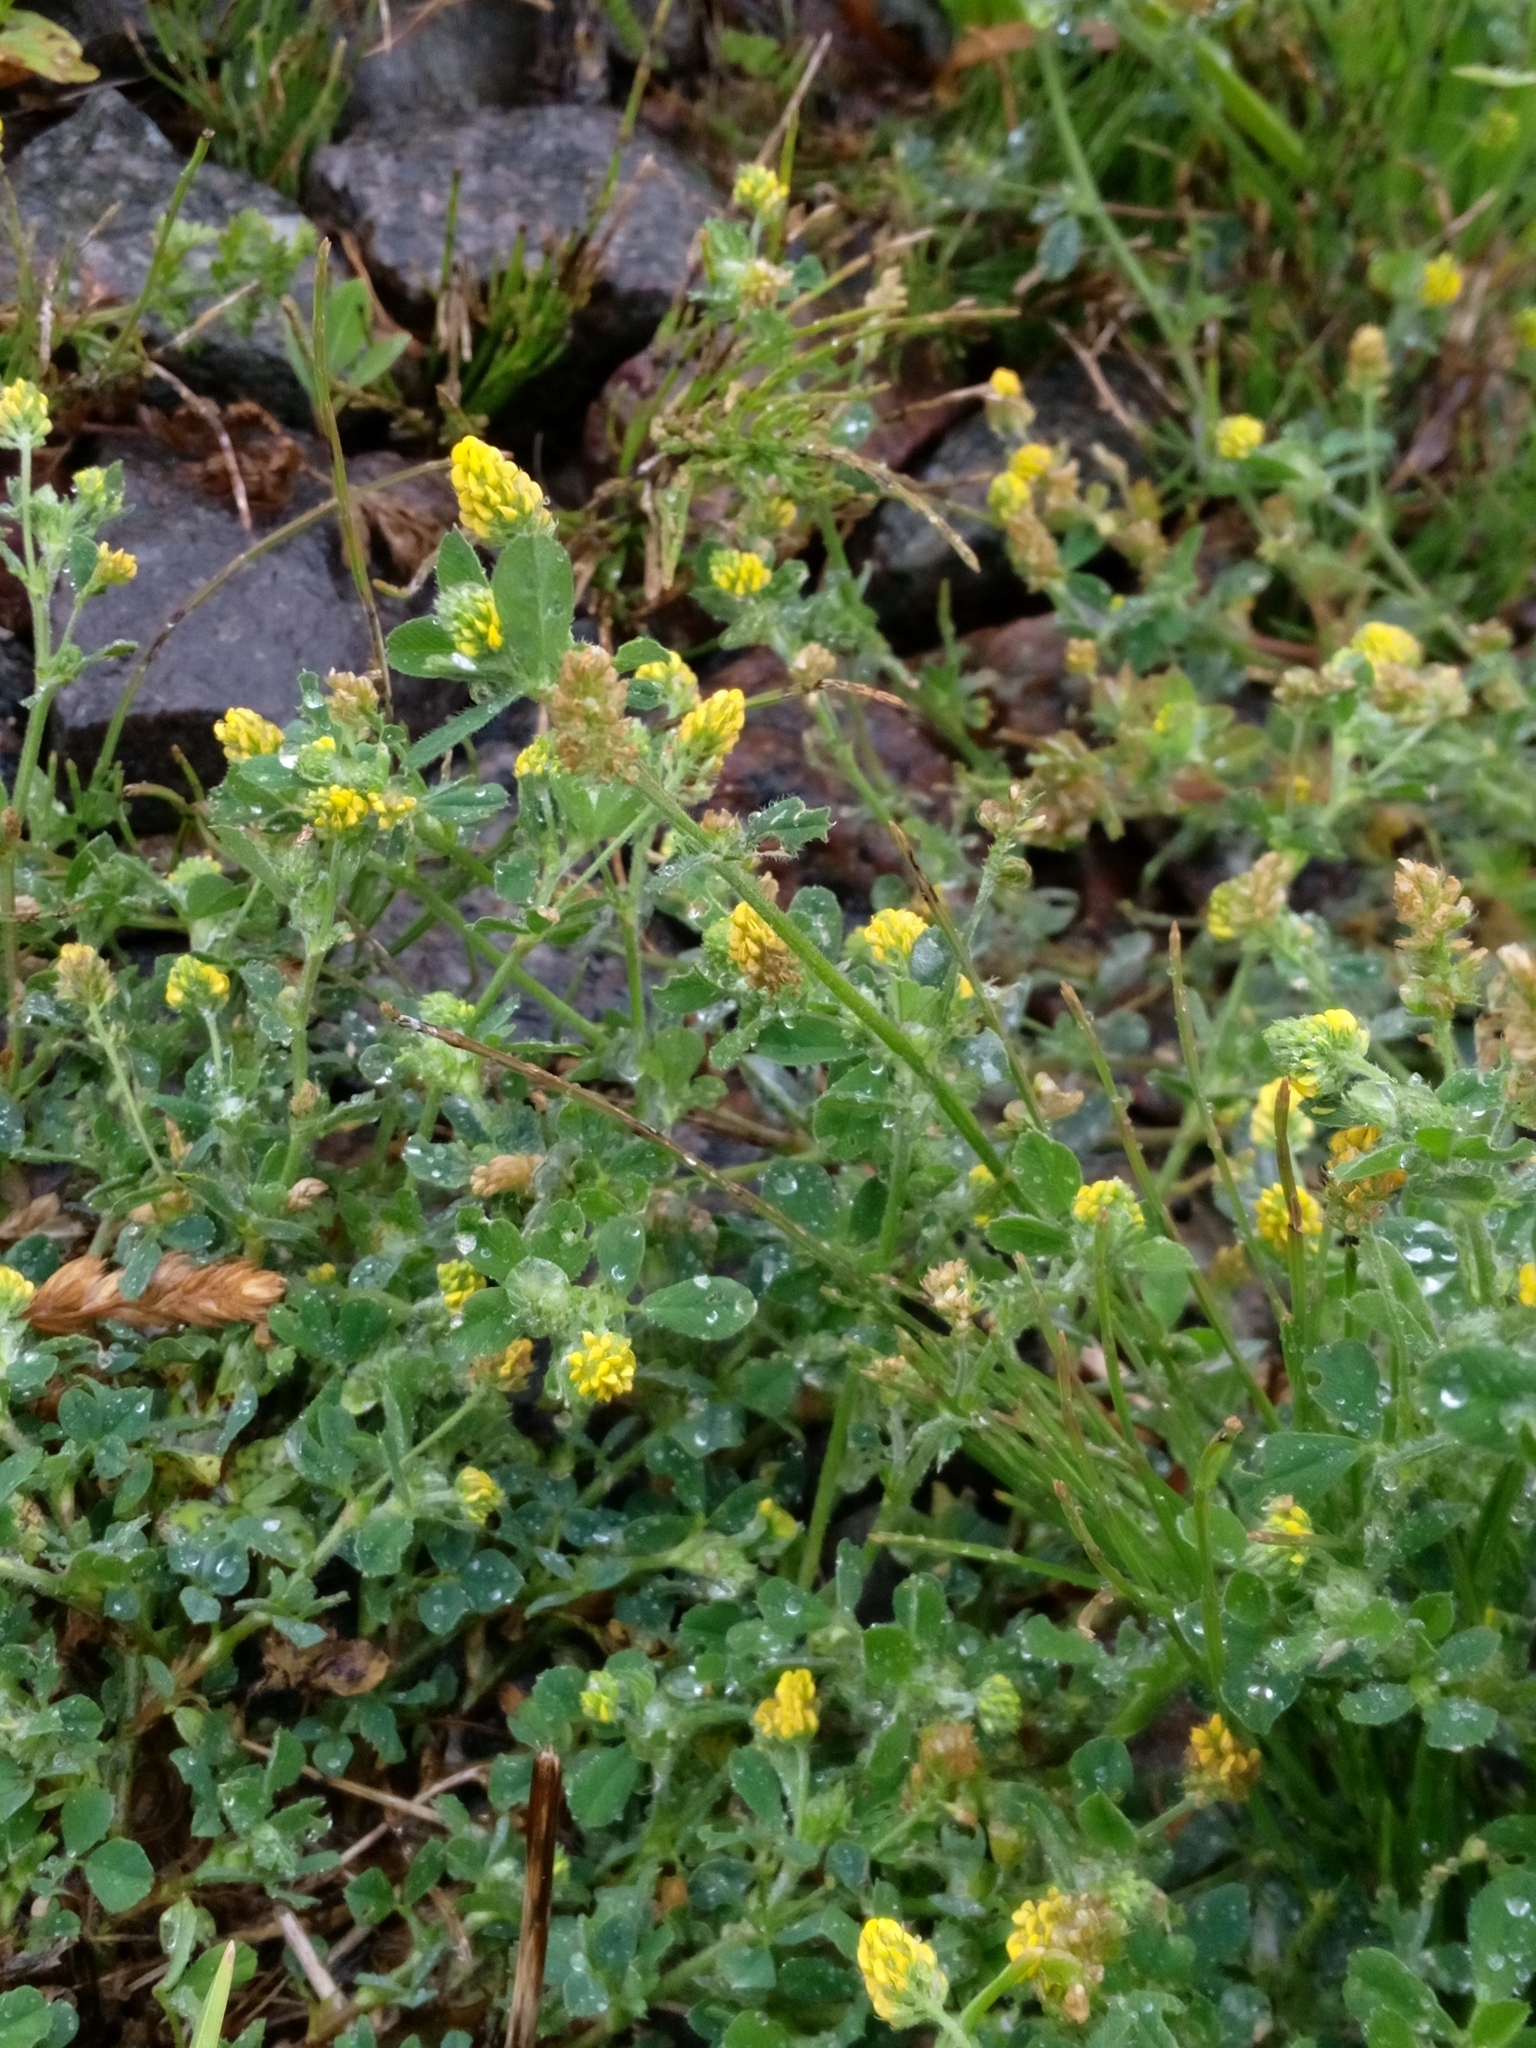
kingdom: Plantae
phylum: Tracheophyta
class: Magnoliopsida
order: Fabales
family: Fabaceae
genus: Medicago
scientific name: Medicago lupulina
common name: Black medick
